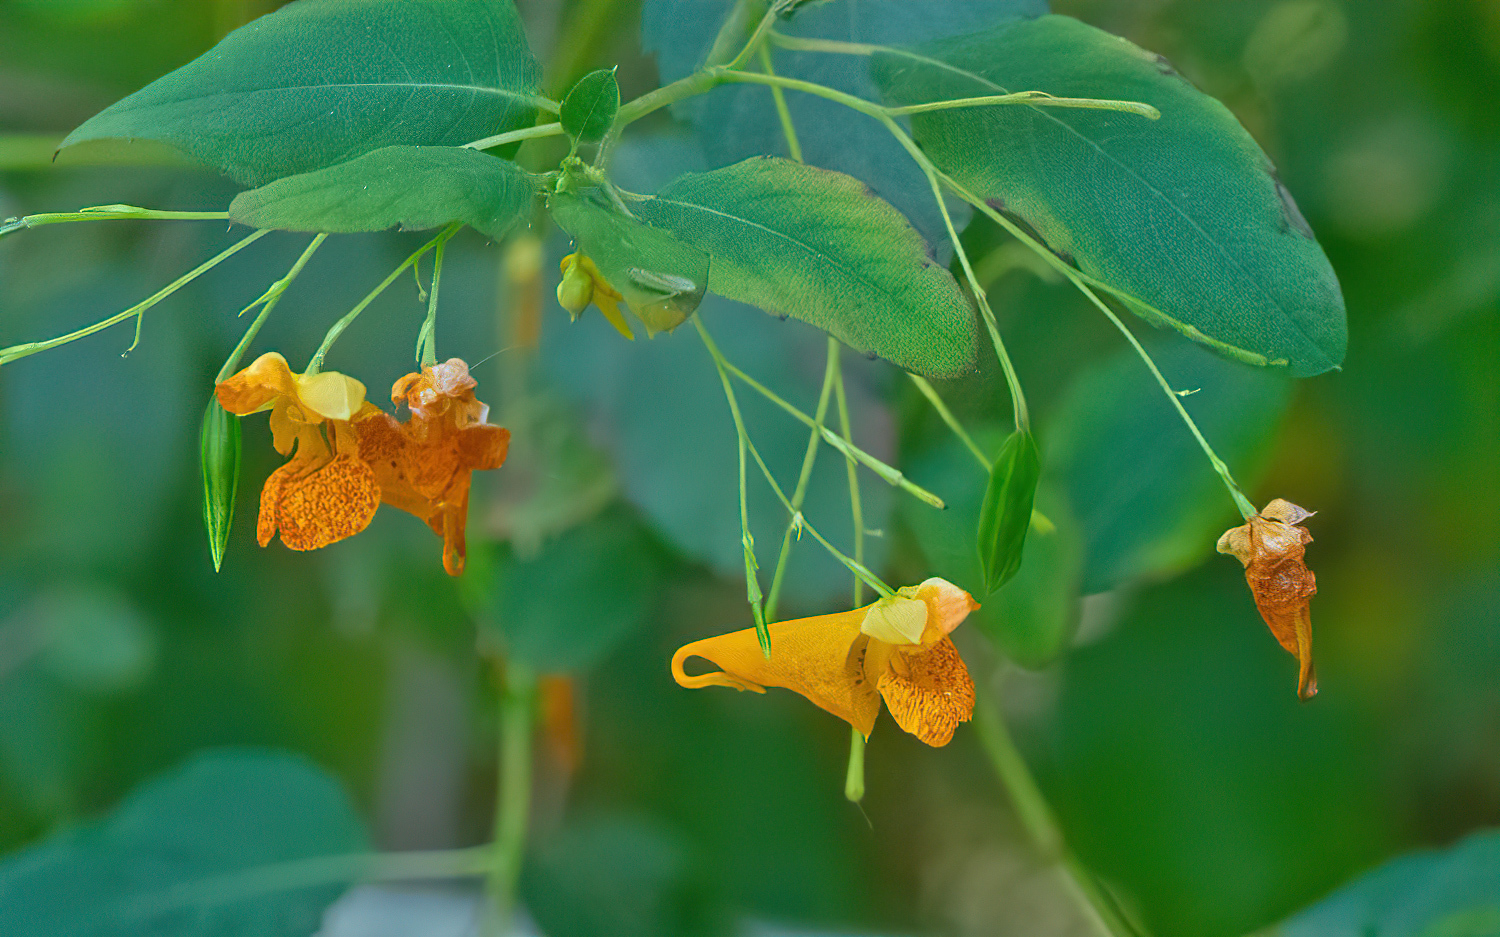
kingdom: Plantae
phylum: Tracheophyta
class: Magnoliopsida
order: Ericales
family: Balsaminaceae
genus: Impatiens
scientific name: Impatiens capensis
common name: Orange balsam
